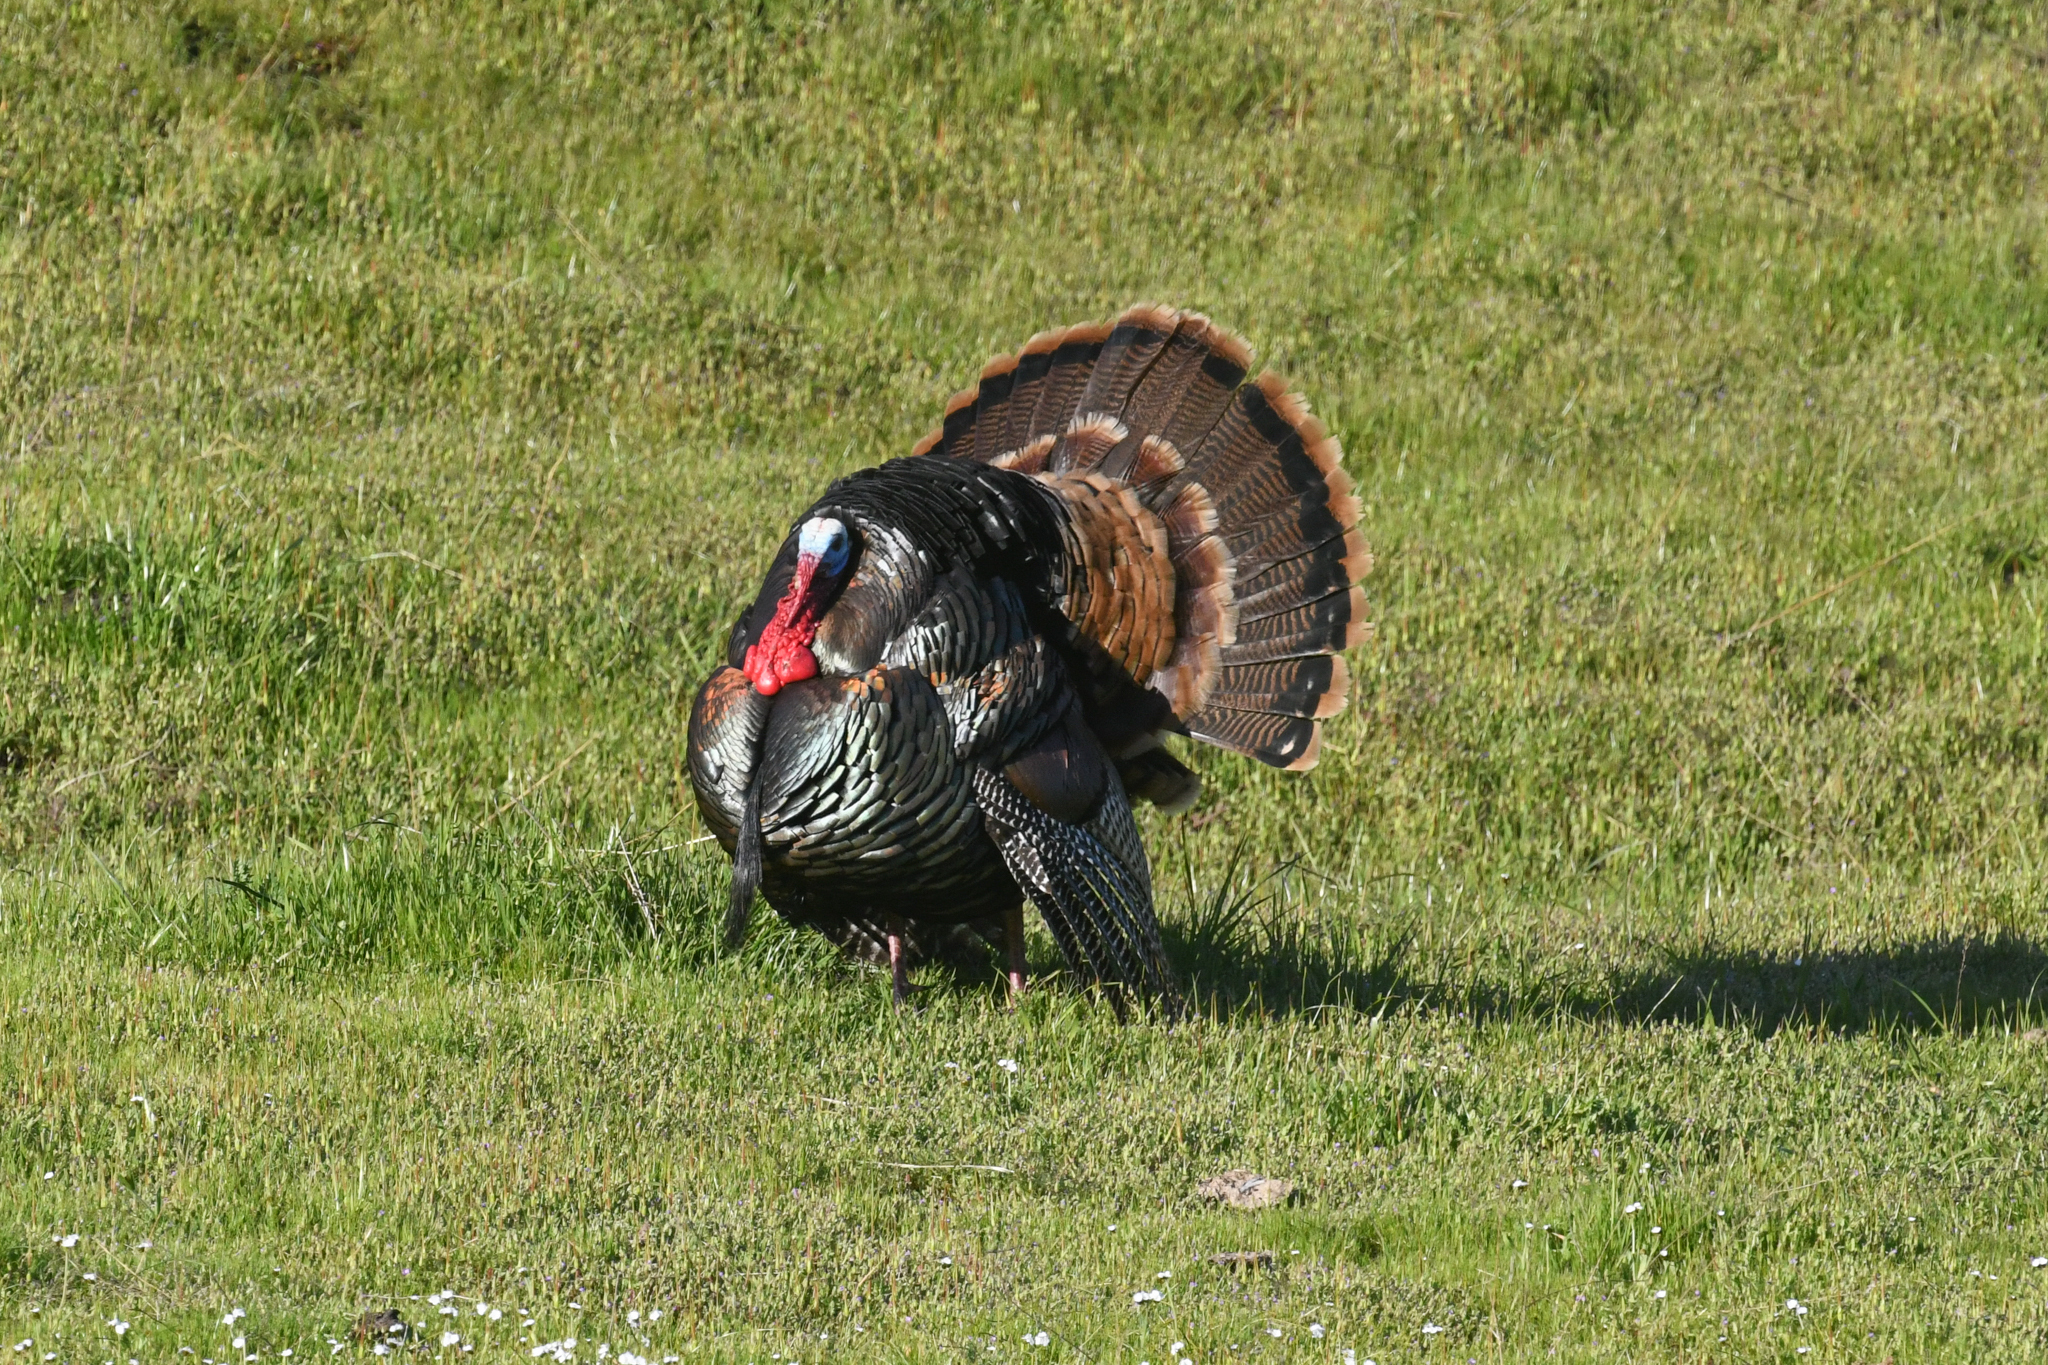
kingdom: Animalia
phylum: Chordata
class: Aves
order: Galliformes
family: Phasianidae
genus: Meleagris
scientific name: Meleagris gallopavo
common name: Wild turkey
